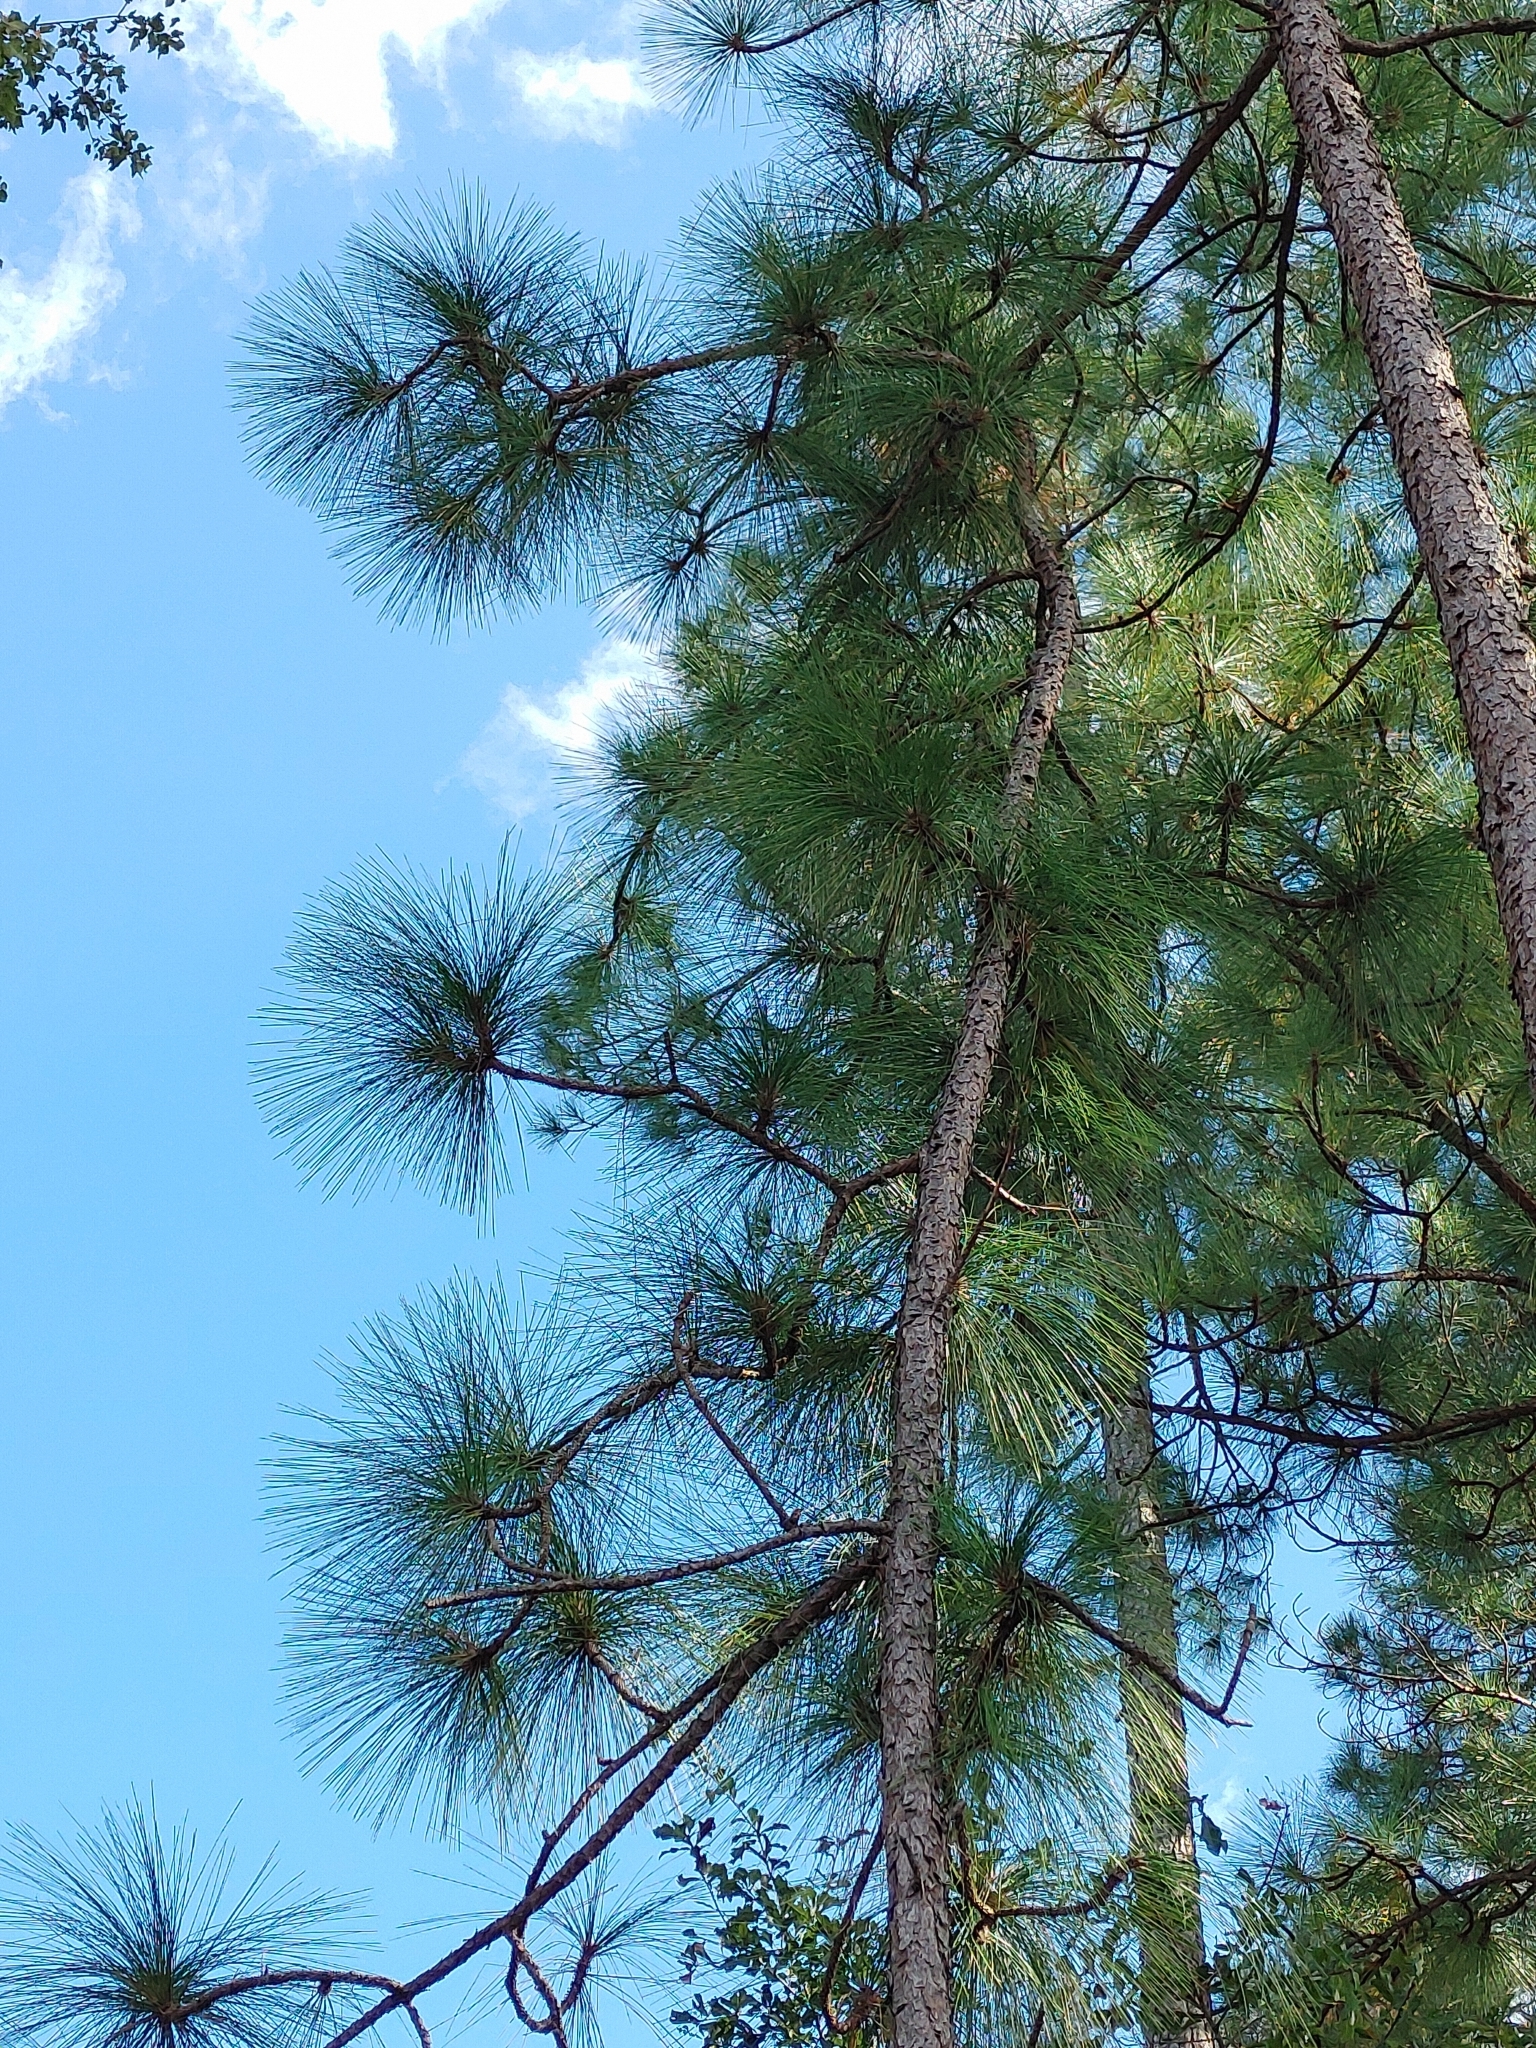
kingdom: Plantae
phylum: Tracheophyta
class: Pinopsida
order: Pinales
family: Pinaceae
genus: Pinus
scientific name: Pinus palustris
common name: Longleaf pine
